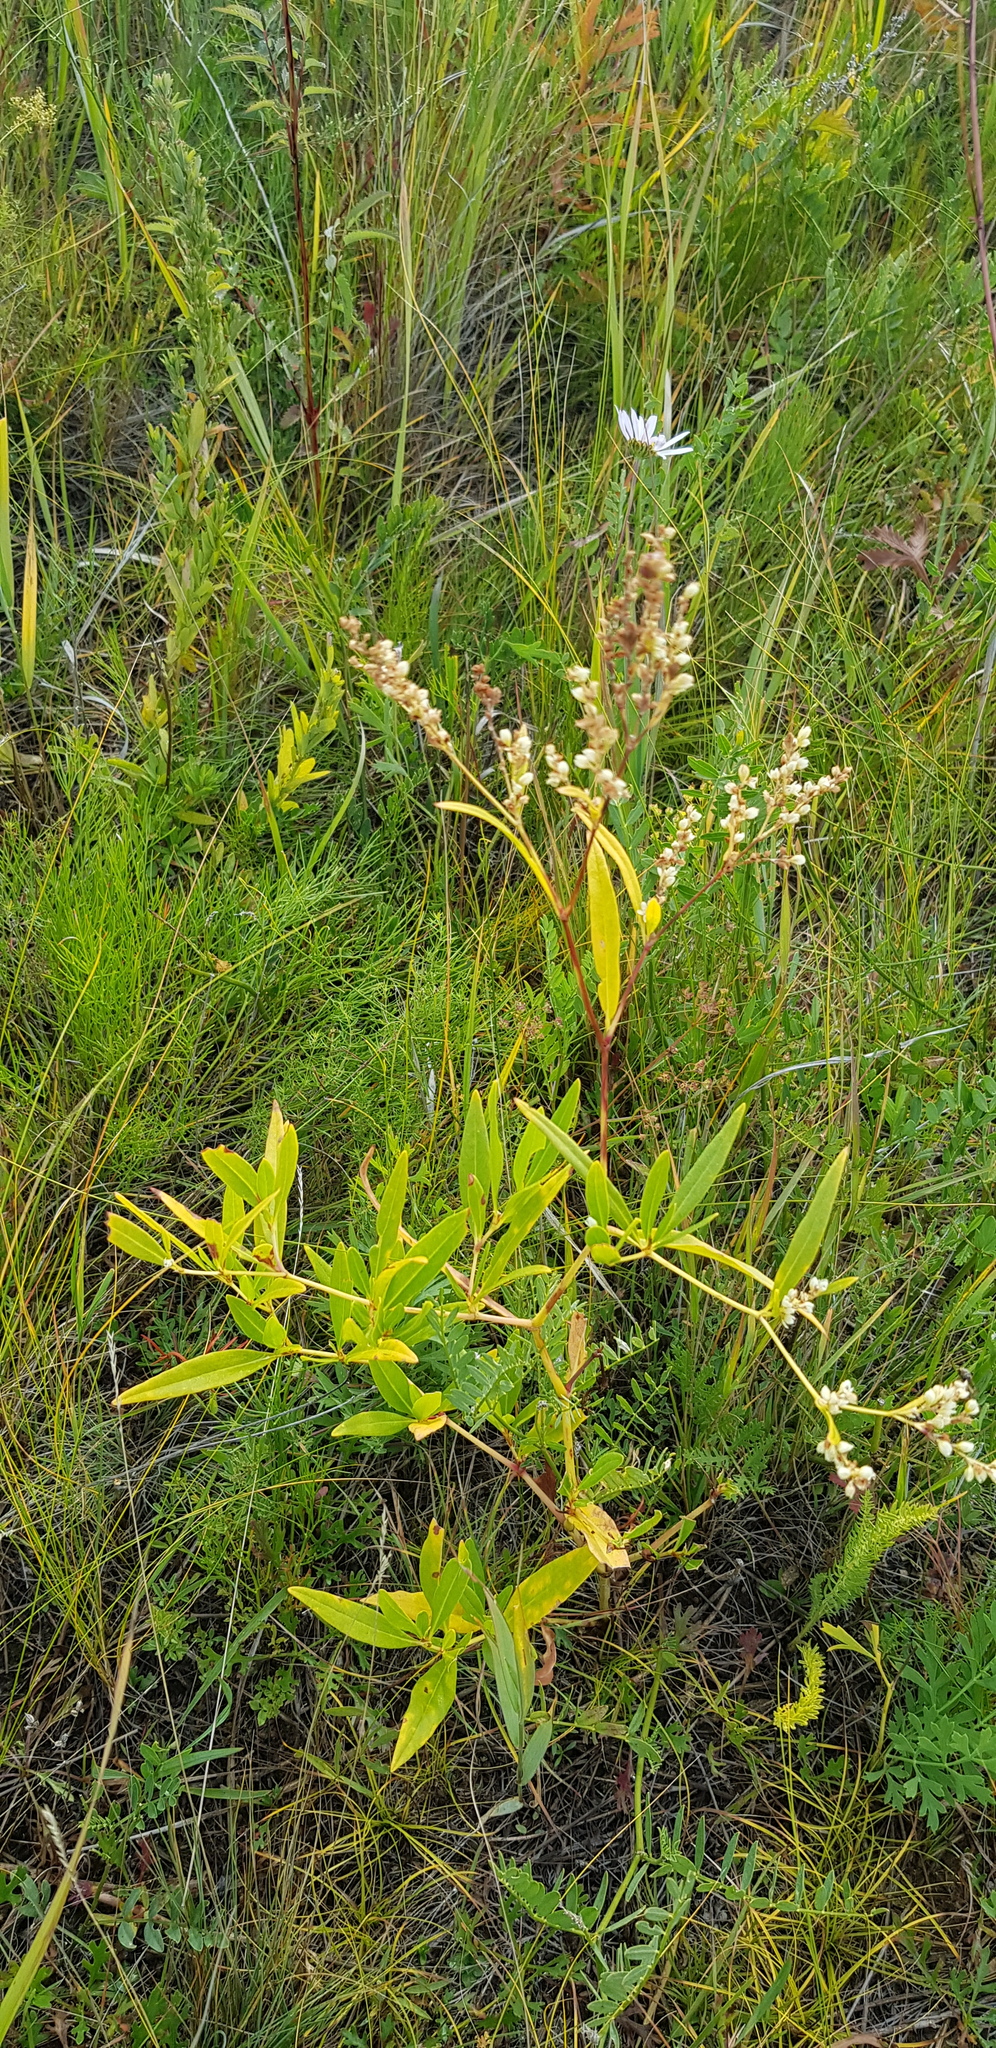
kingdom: Plantae
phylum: Tracheophyta
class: Magnoliopsida
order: Caryophyllales
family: Polygonaceae
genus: Koenigia
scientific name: Koenigia divaricata
